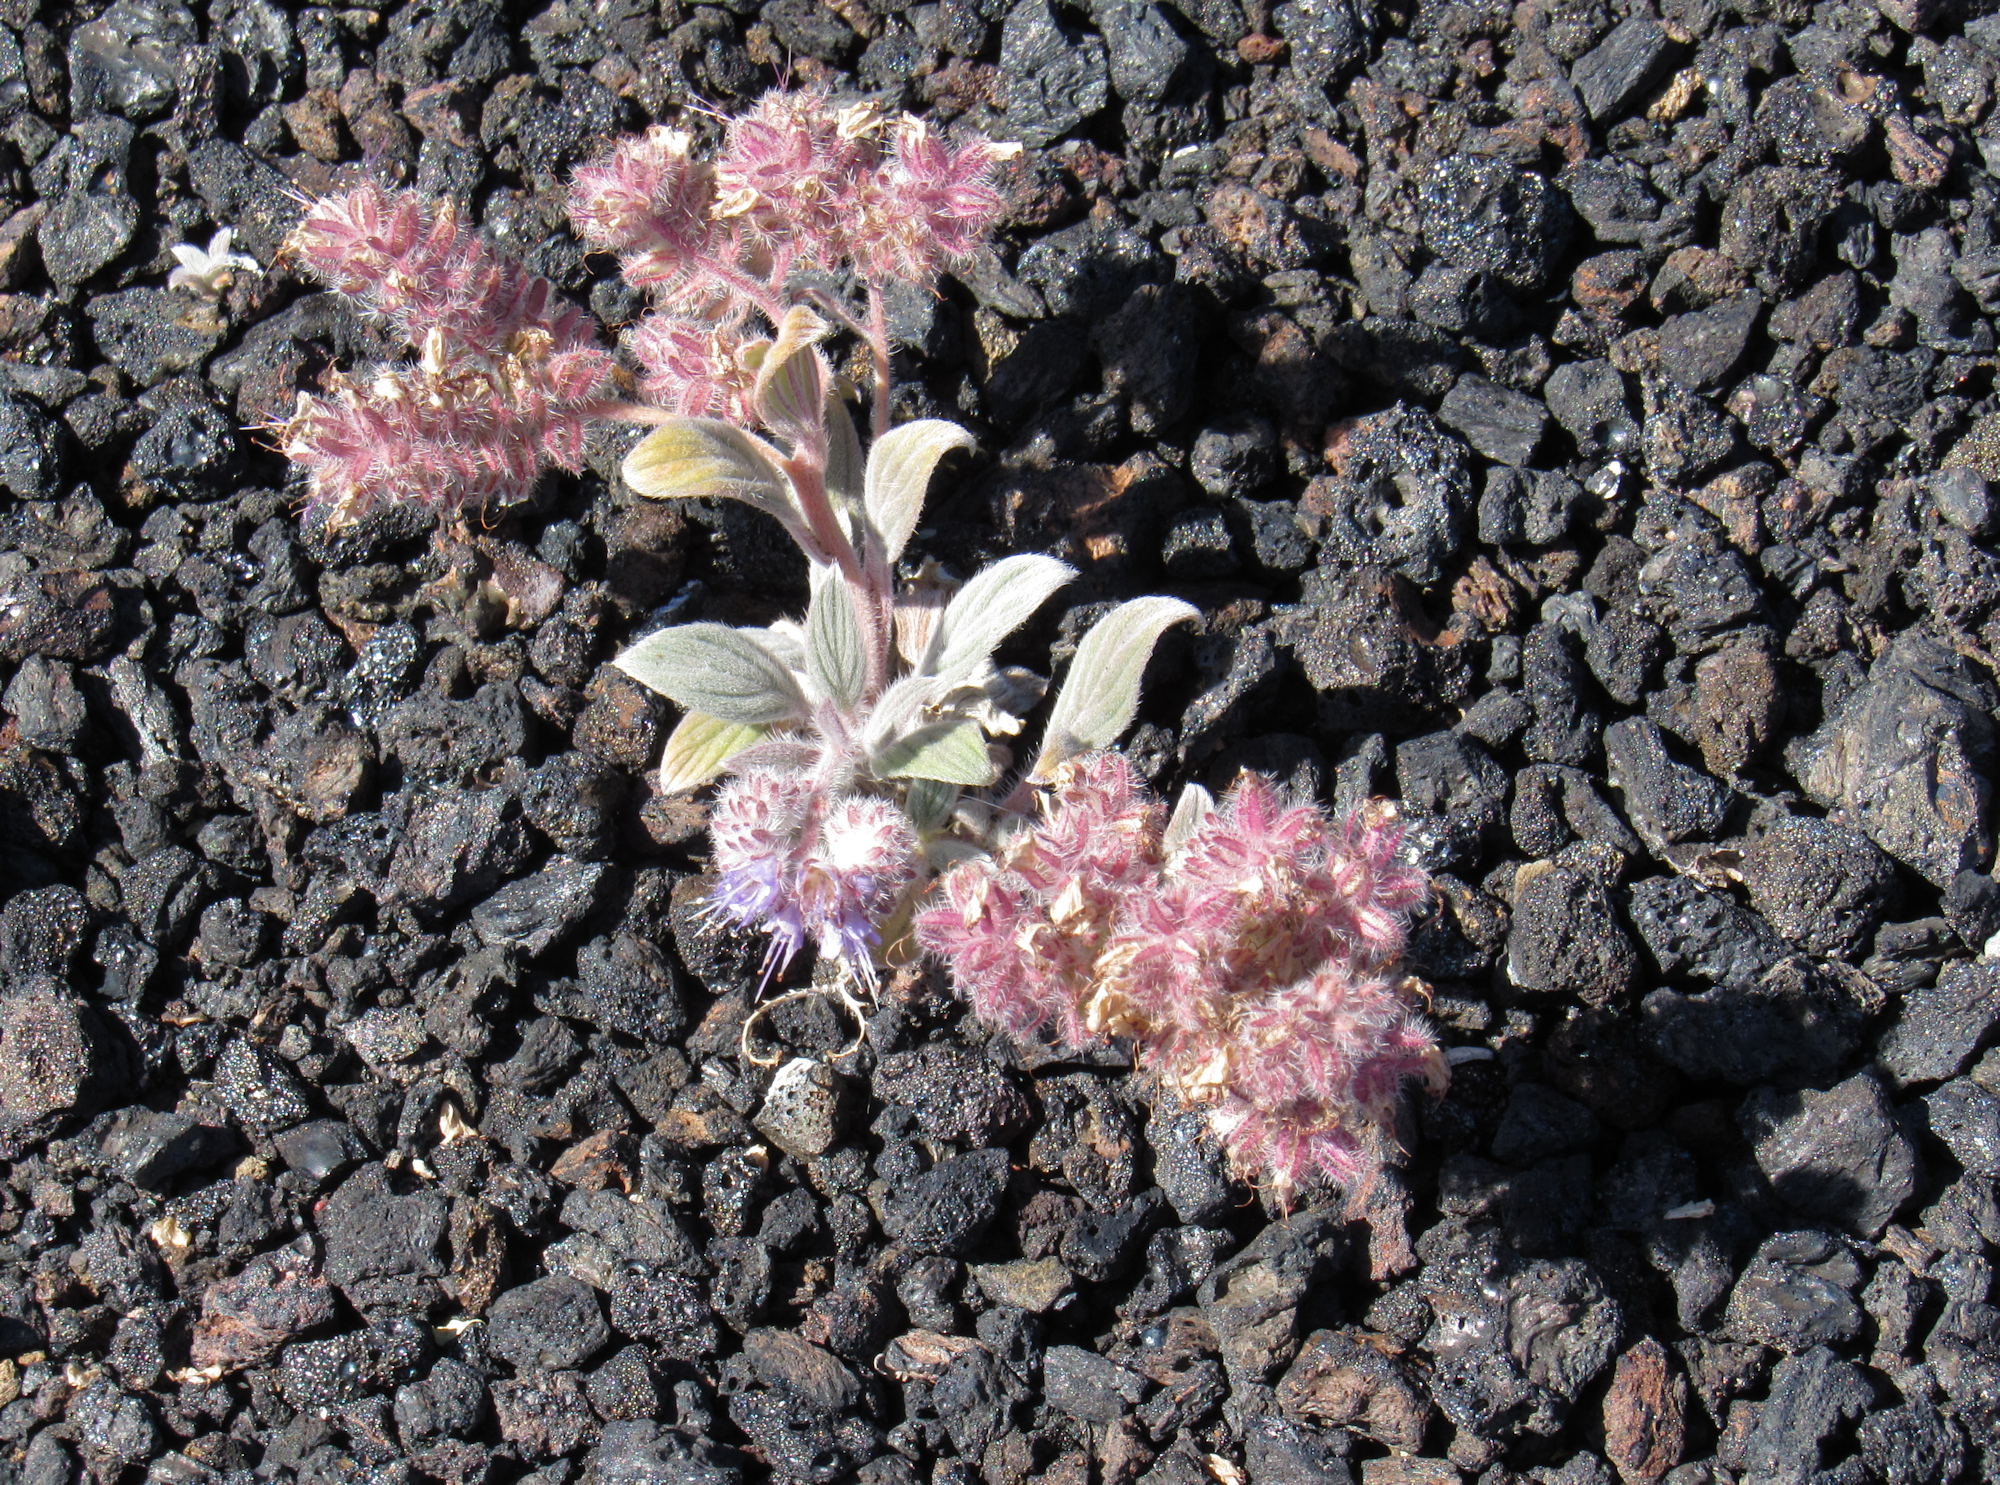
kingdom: Plantae
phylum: Tracheophyta
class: Magnoliopsida
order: Boraginales
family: Hydrophyllaceae
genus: Phacelia
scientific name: Phacelia hastata
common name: Silver-leaved phacelia
